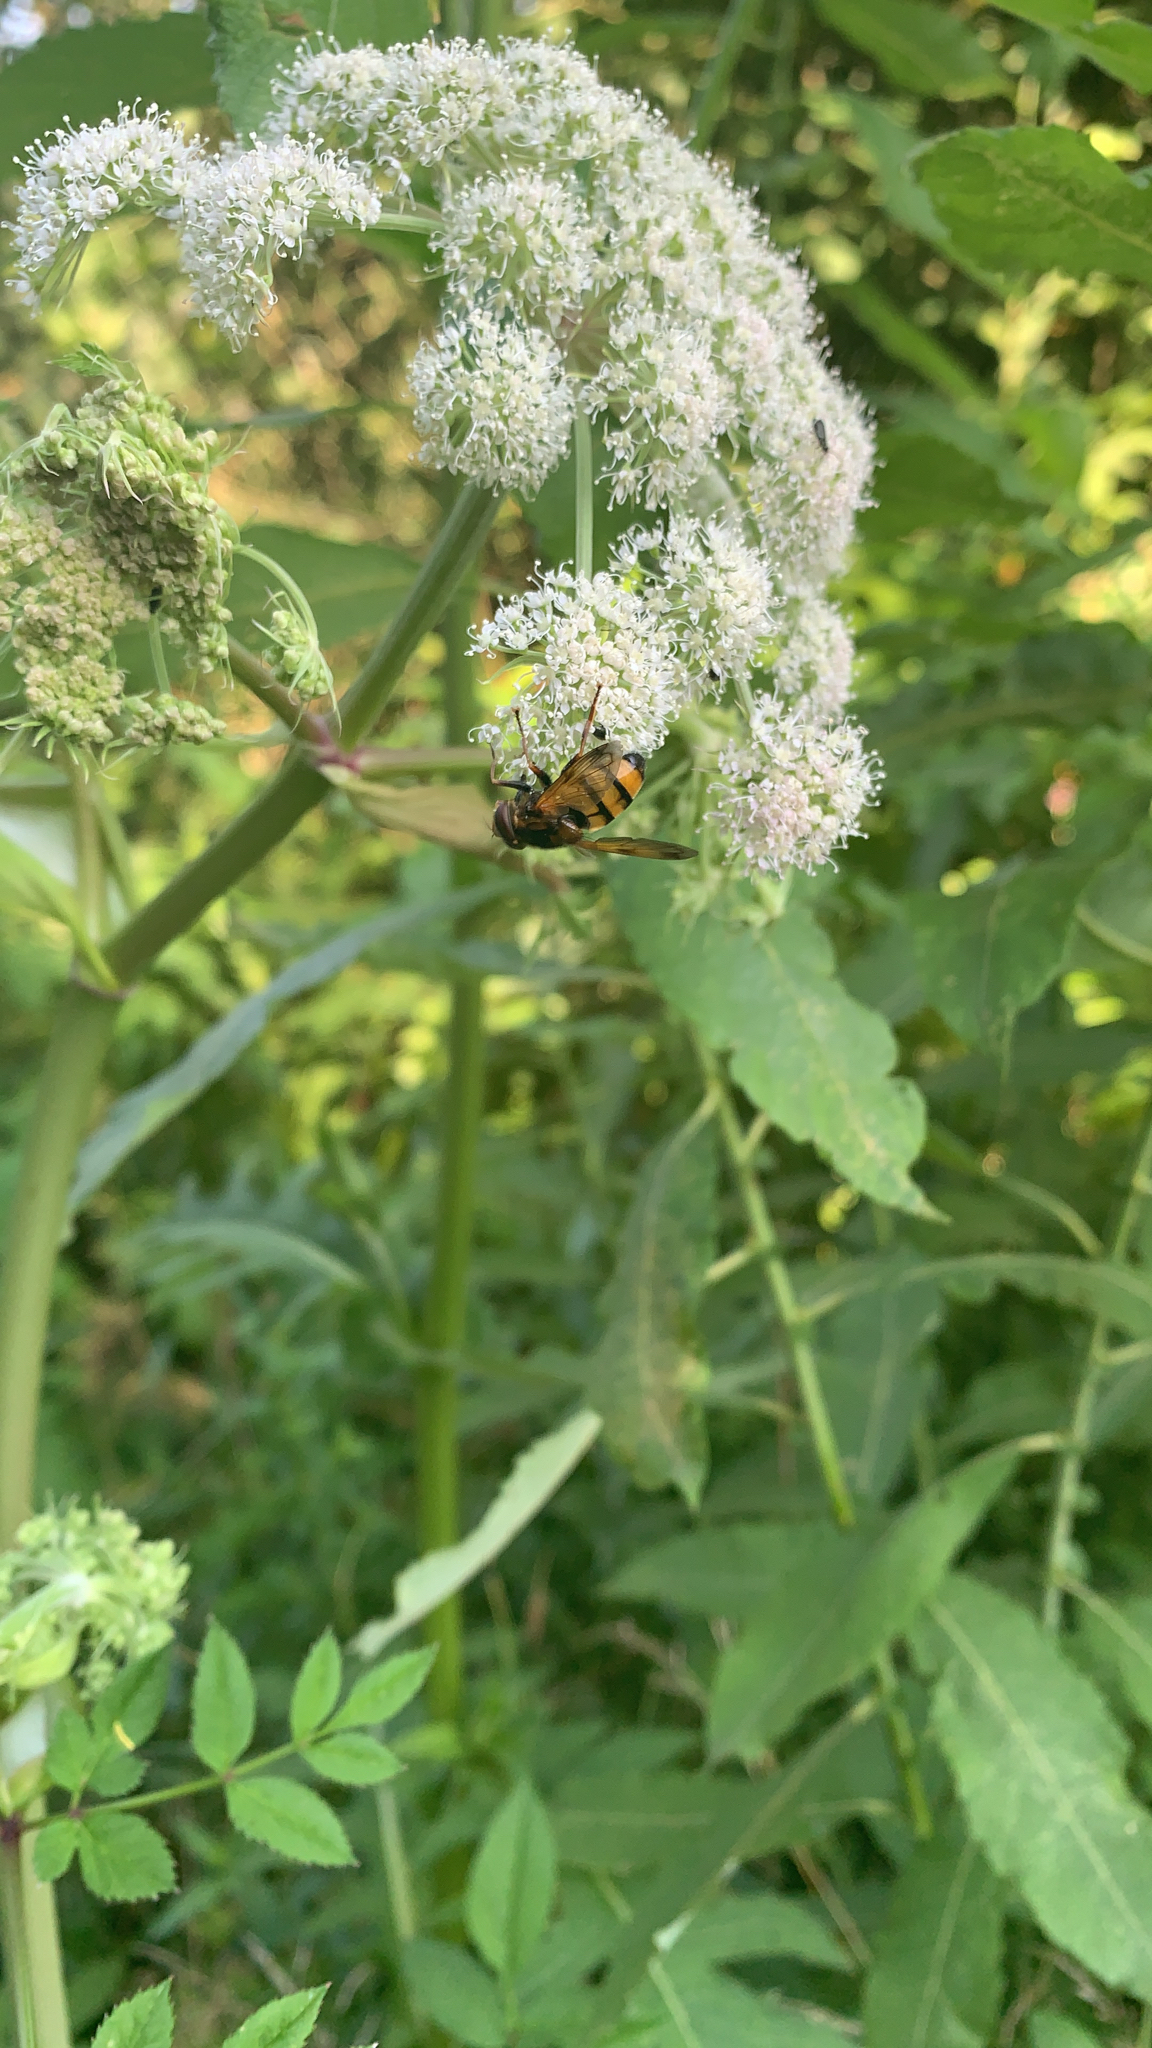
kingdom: Animalia
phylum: Arthropoda
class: Insecta
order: Diptera
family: Syrphidae
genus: Volucella
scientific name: Volucella inanis
